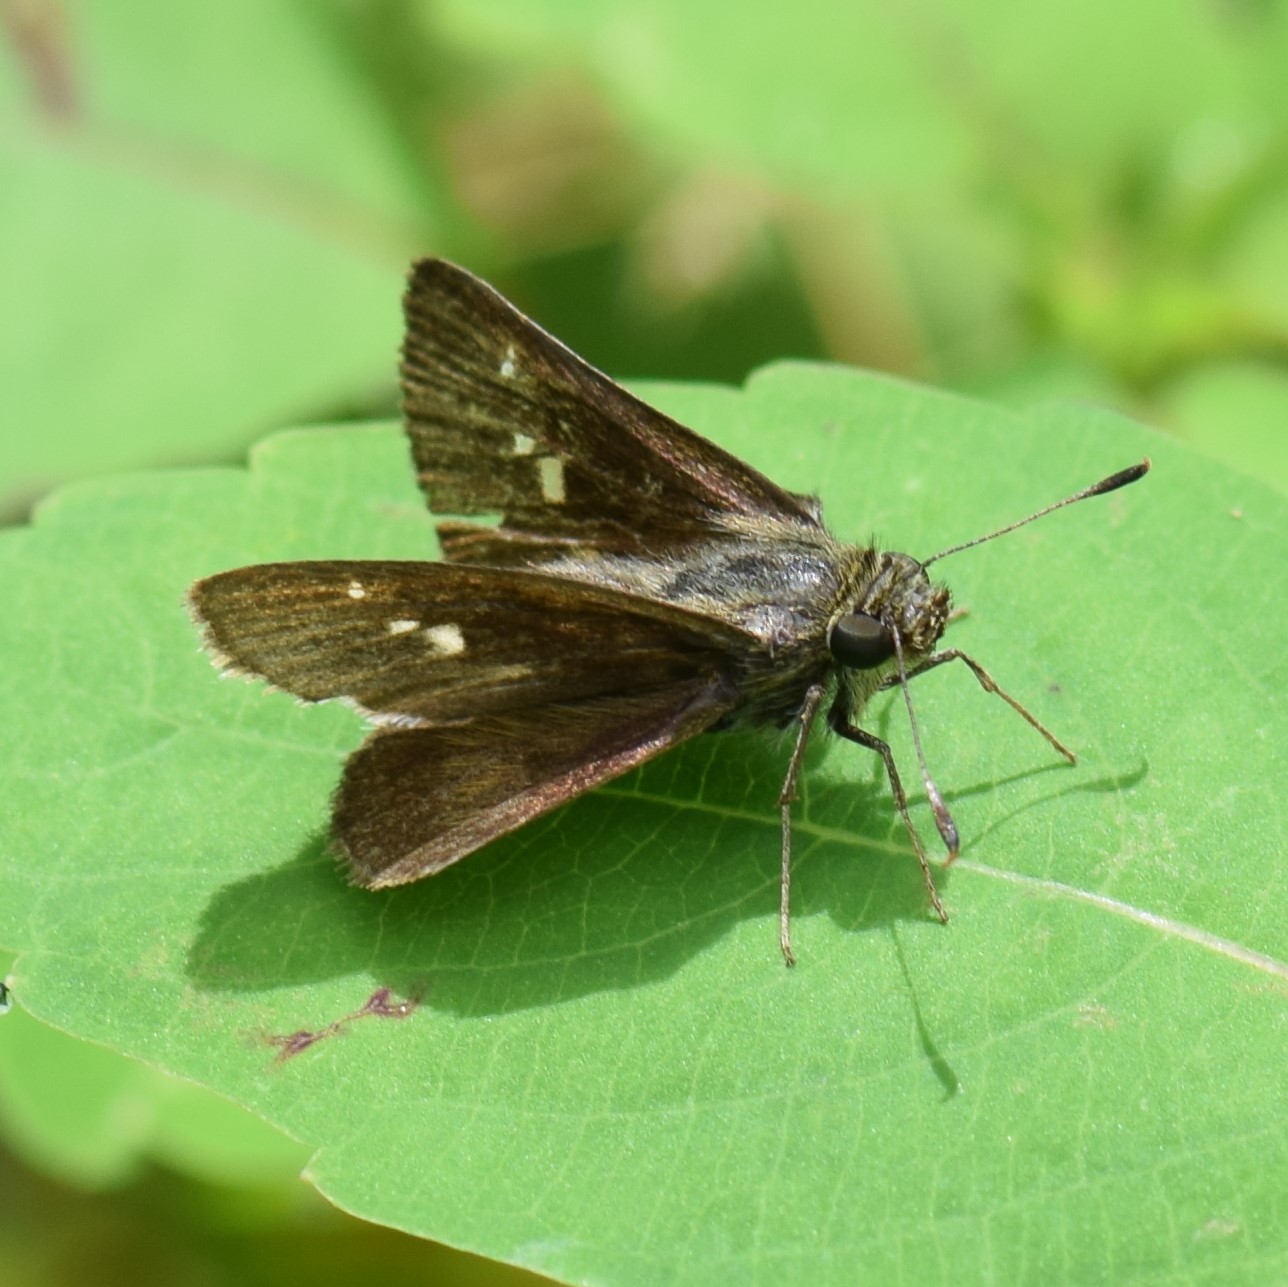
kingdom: Animalia
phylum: Arthropoda
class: Insecta
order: Lepidoptera
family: Hesperiidae
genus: Euphyes
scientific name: Euphyes vestris
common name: Dun skipper
